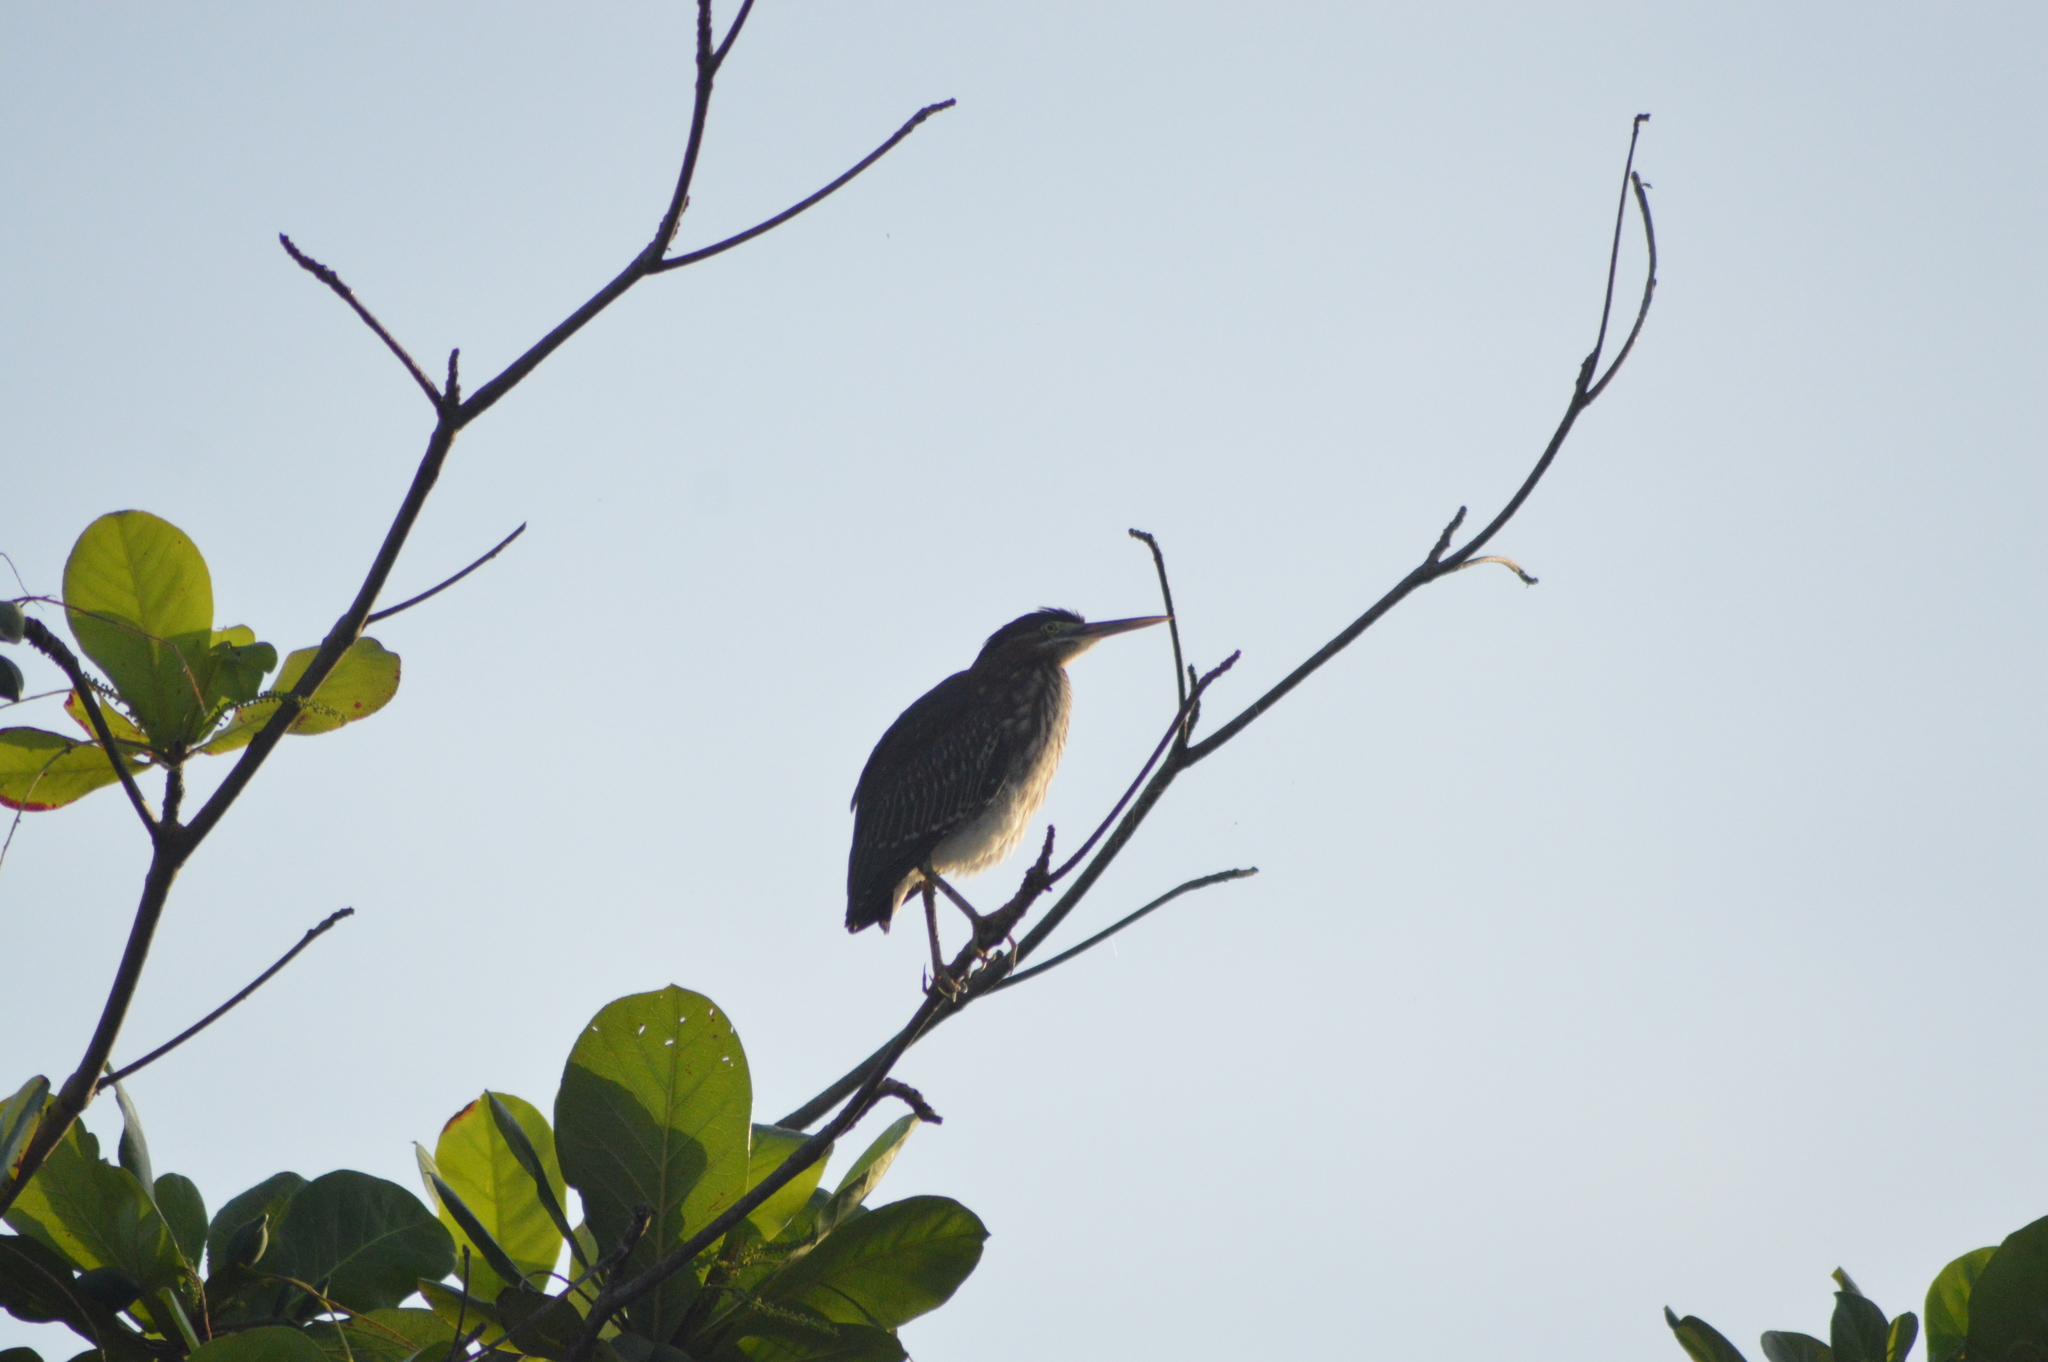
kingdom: Animalia
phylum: Chordata
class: Aves
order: Pelecaniformes
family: Ardeidae
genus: Butorides
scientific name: Butorides virescens
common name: Green heron
